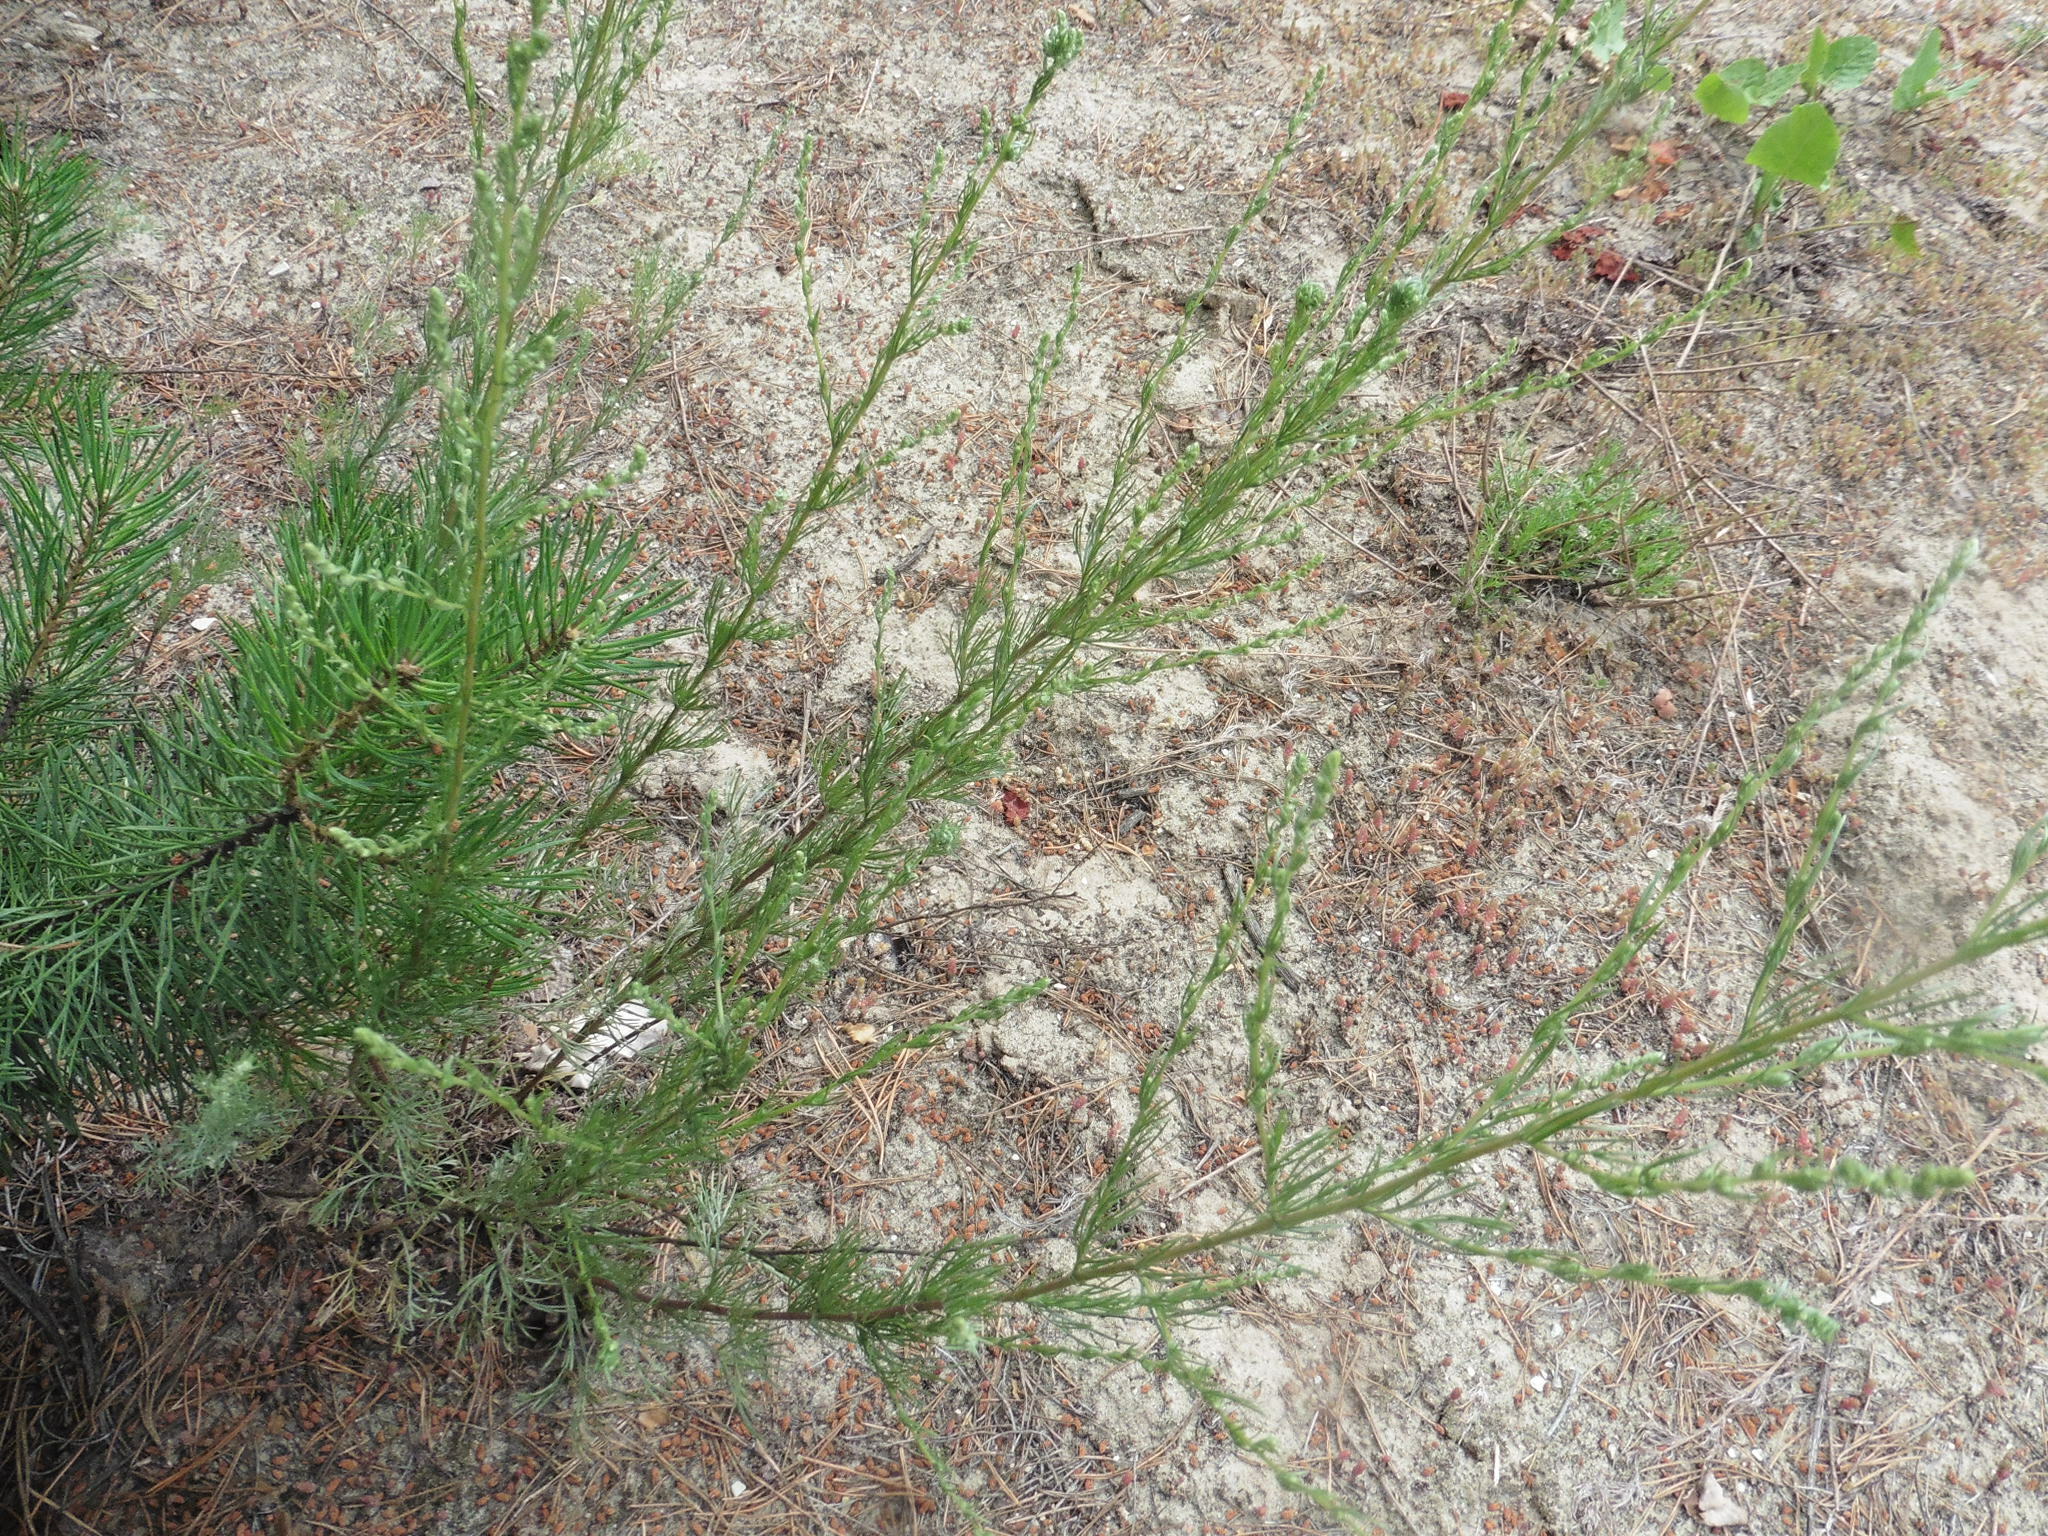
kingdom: Plantae
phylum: Tracheophyta
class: Magnoliopsida
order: Asterales
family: Asteraceae
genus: Artemisia
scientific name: Artemisia campestris
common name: Field wormwood
